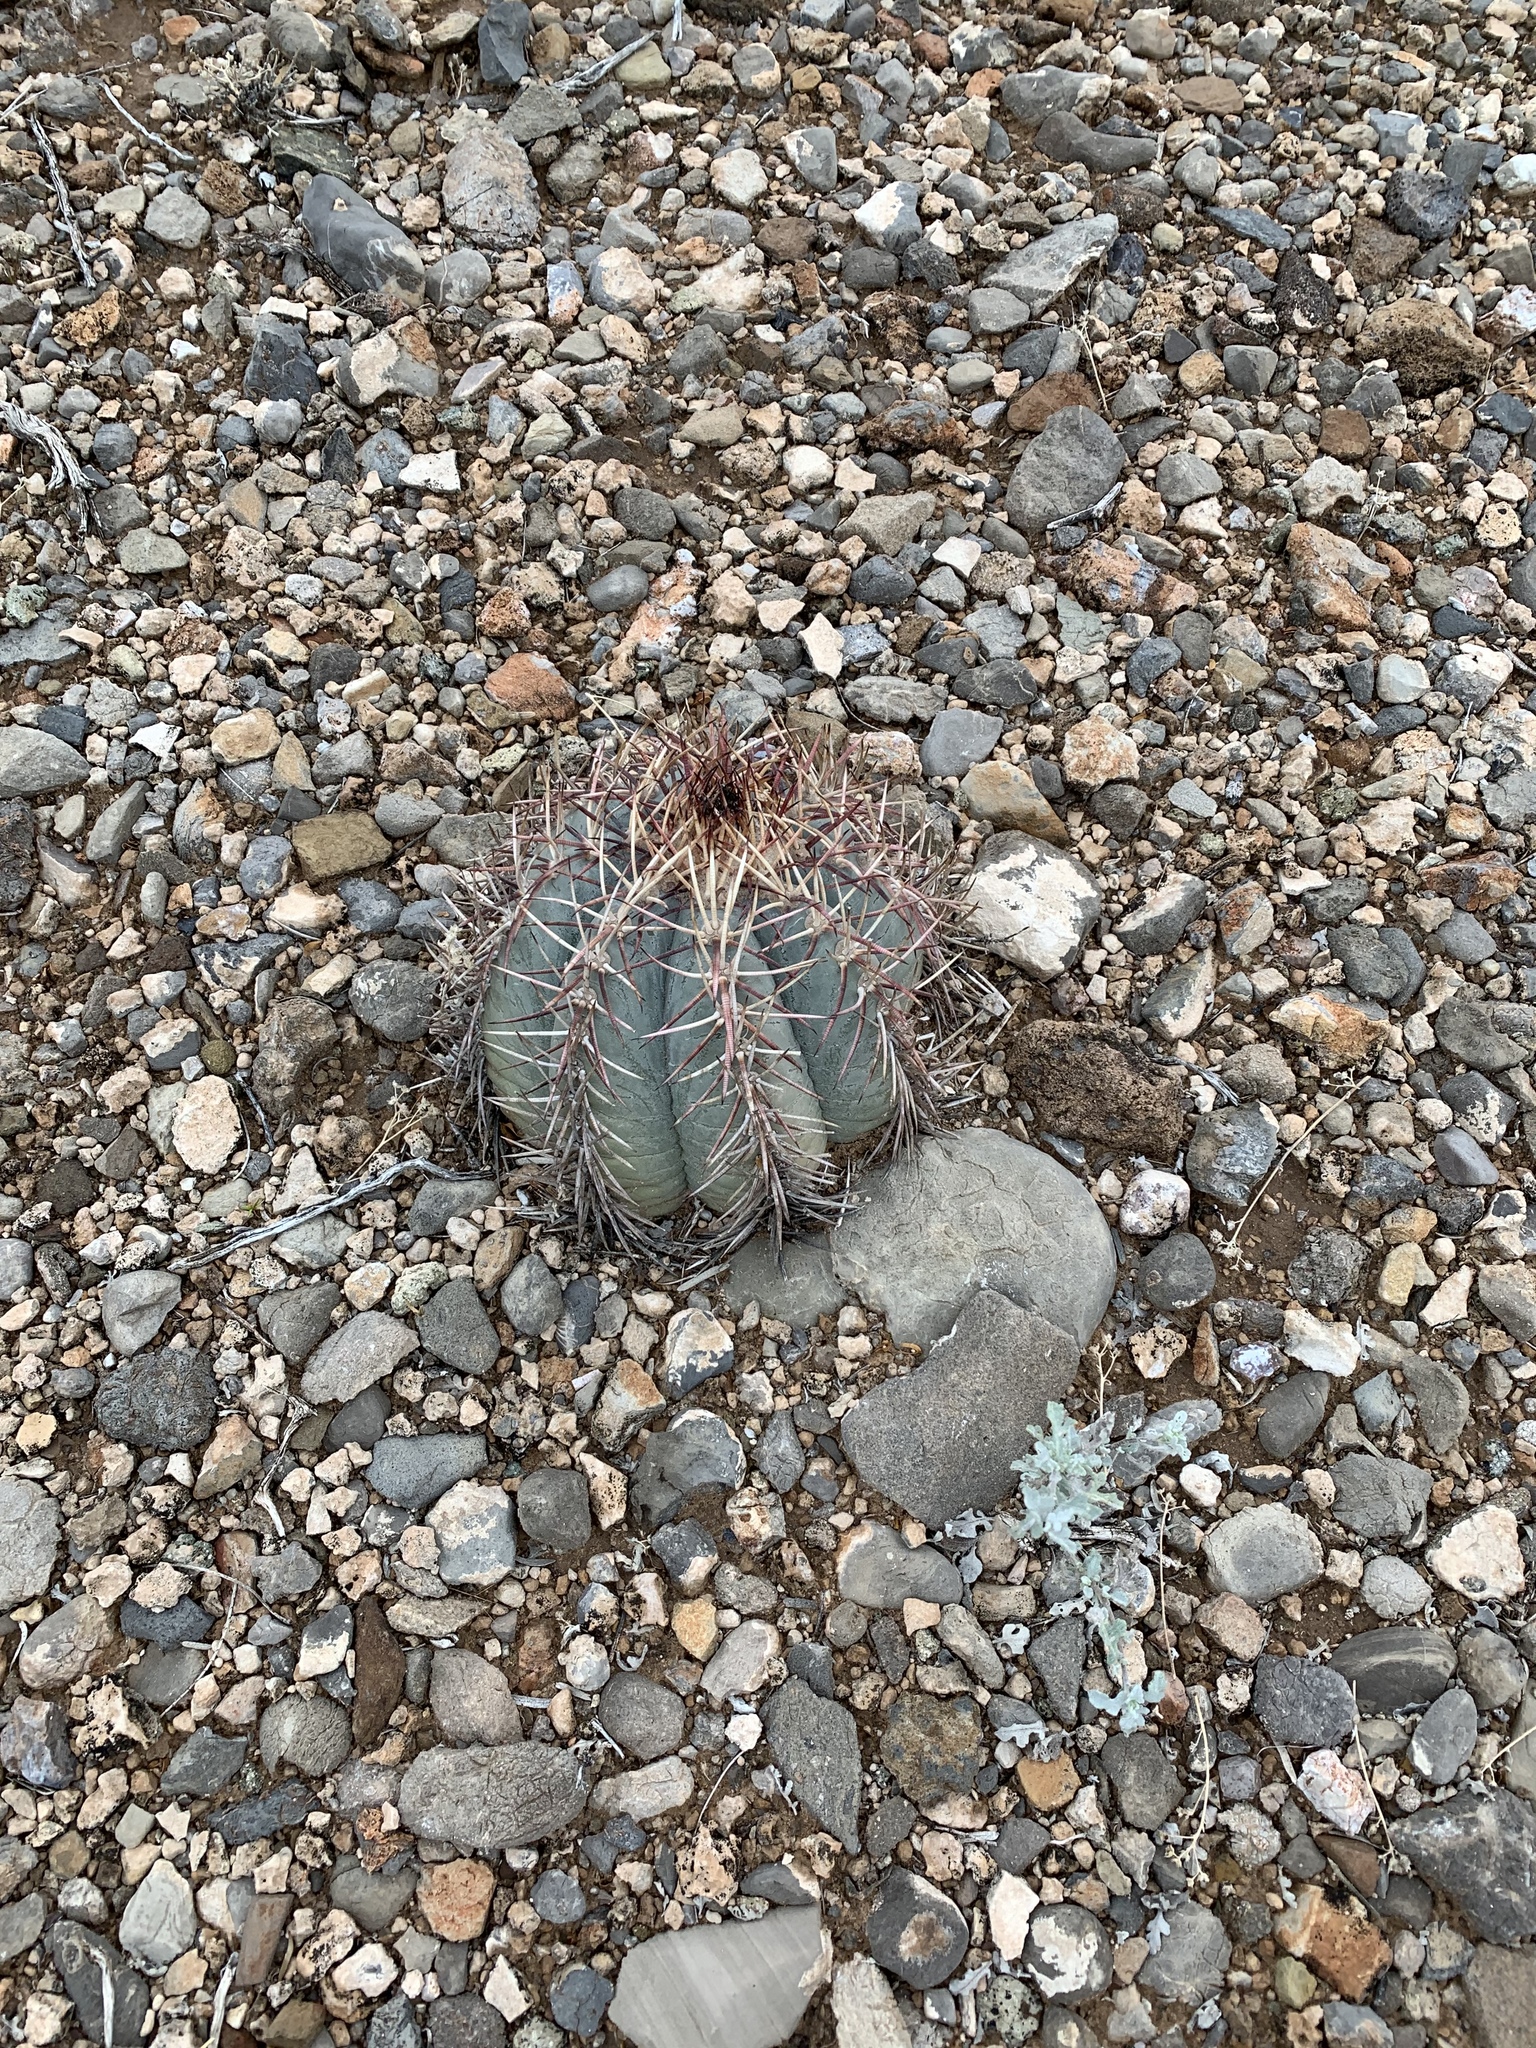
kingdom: Plantae
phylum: Tracheophyta
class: Magnoliopsida
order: Caryophyllales
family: Cactaceae
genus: Echinocactus
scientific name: Echinocactus horizonthalonius
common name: Devilshead
